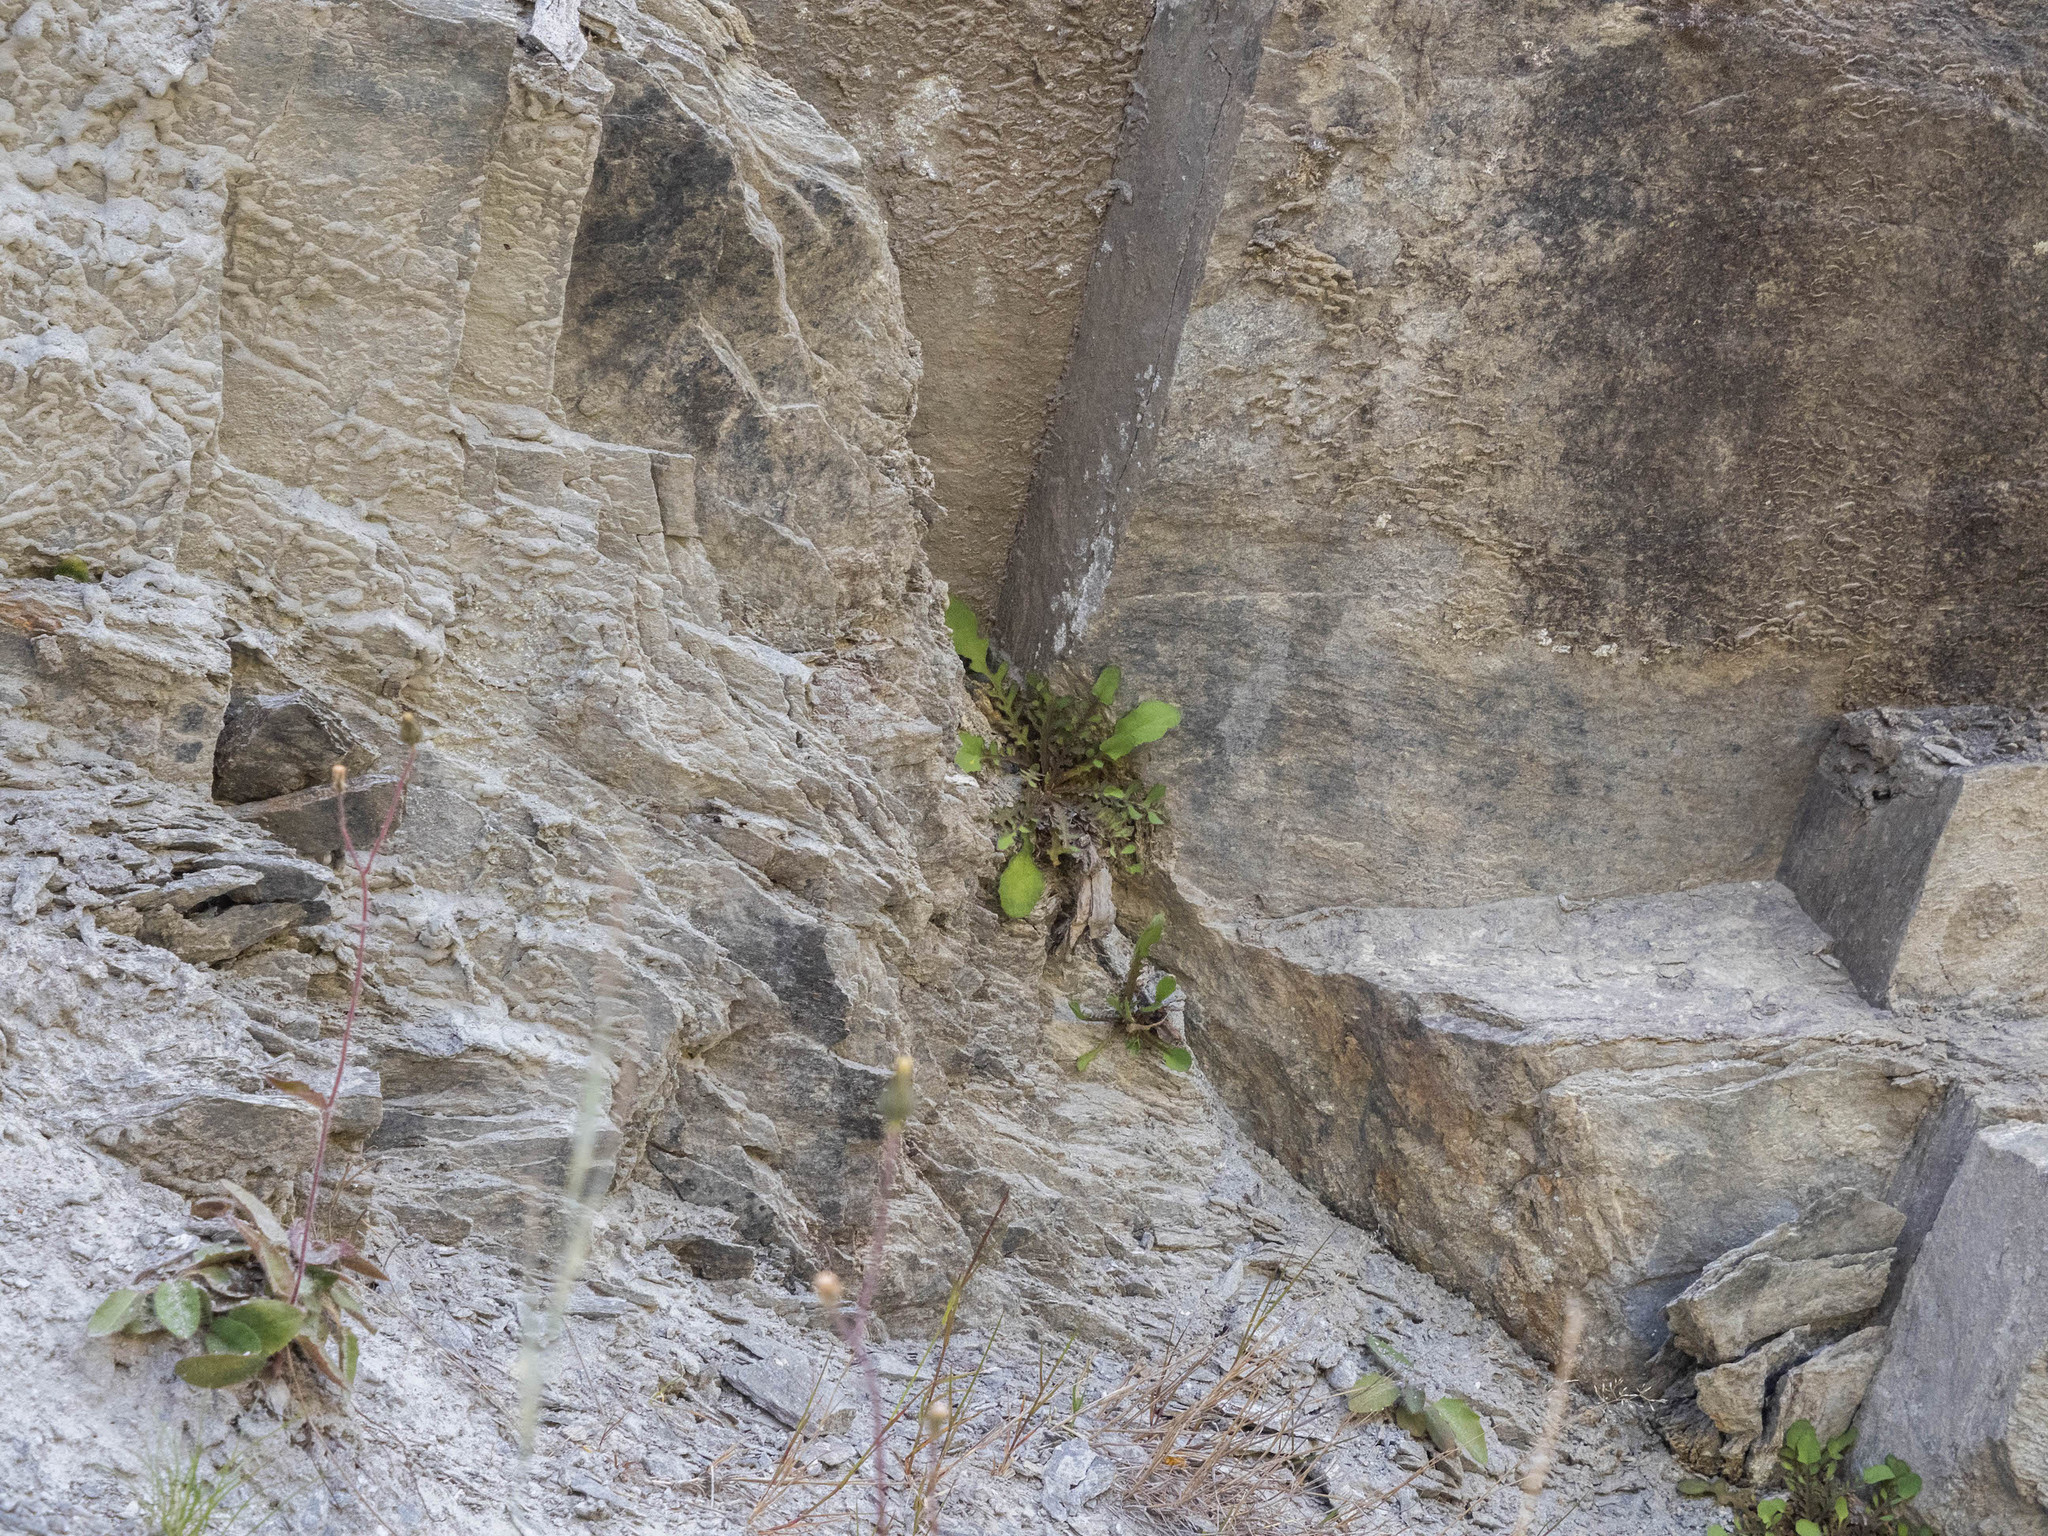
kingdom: Plantae
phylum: Tracheophyta
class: Magnoliopsida
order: Asterales
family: Asteraceae
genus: Sonchus
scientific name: Sonchus novae-zelandiae
